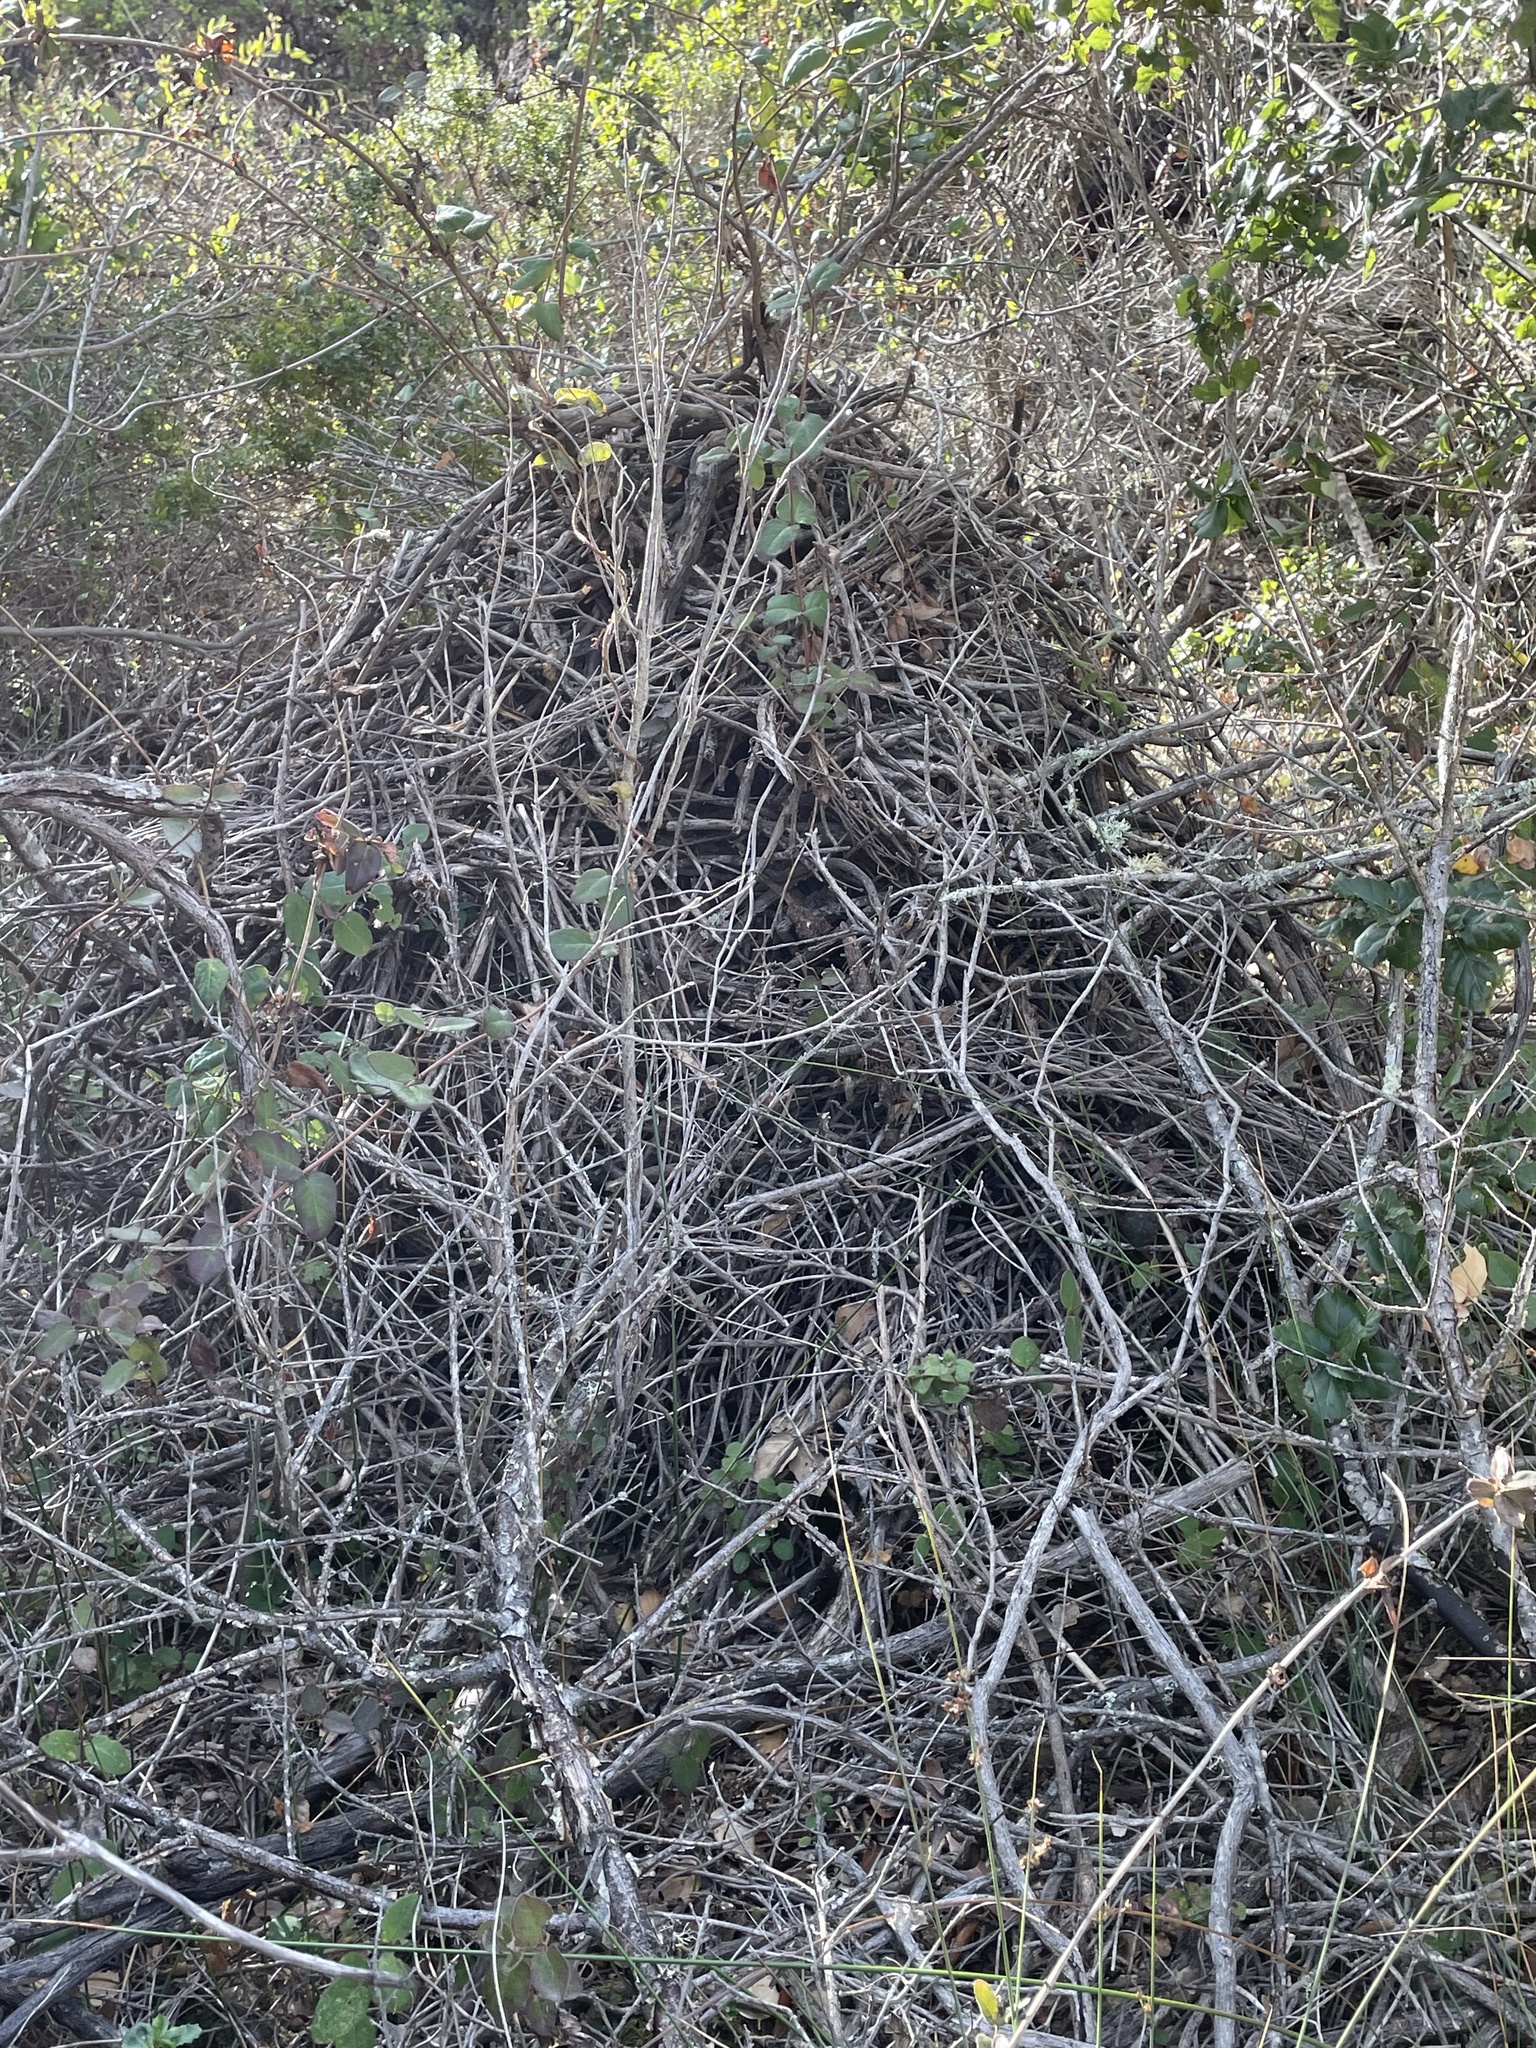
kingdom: Animalia
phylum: Chordata
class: Mammalia
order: Rodentia
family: Cricetidae
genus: Neotoma
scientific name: Neotoma fuscipes
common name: Dusky-footed woodrat
